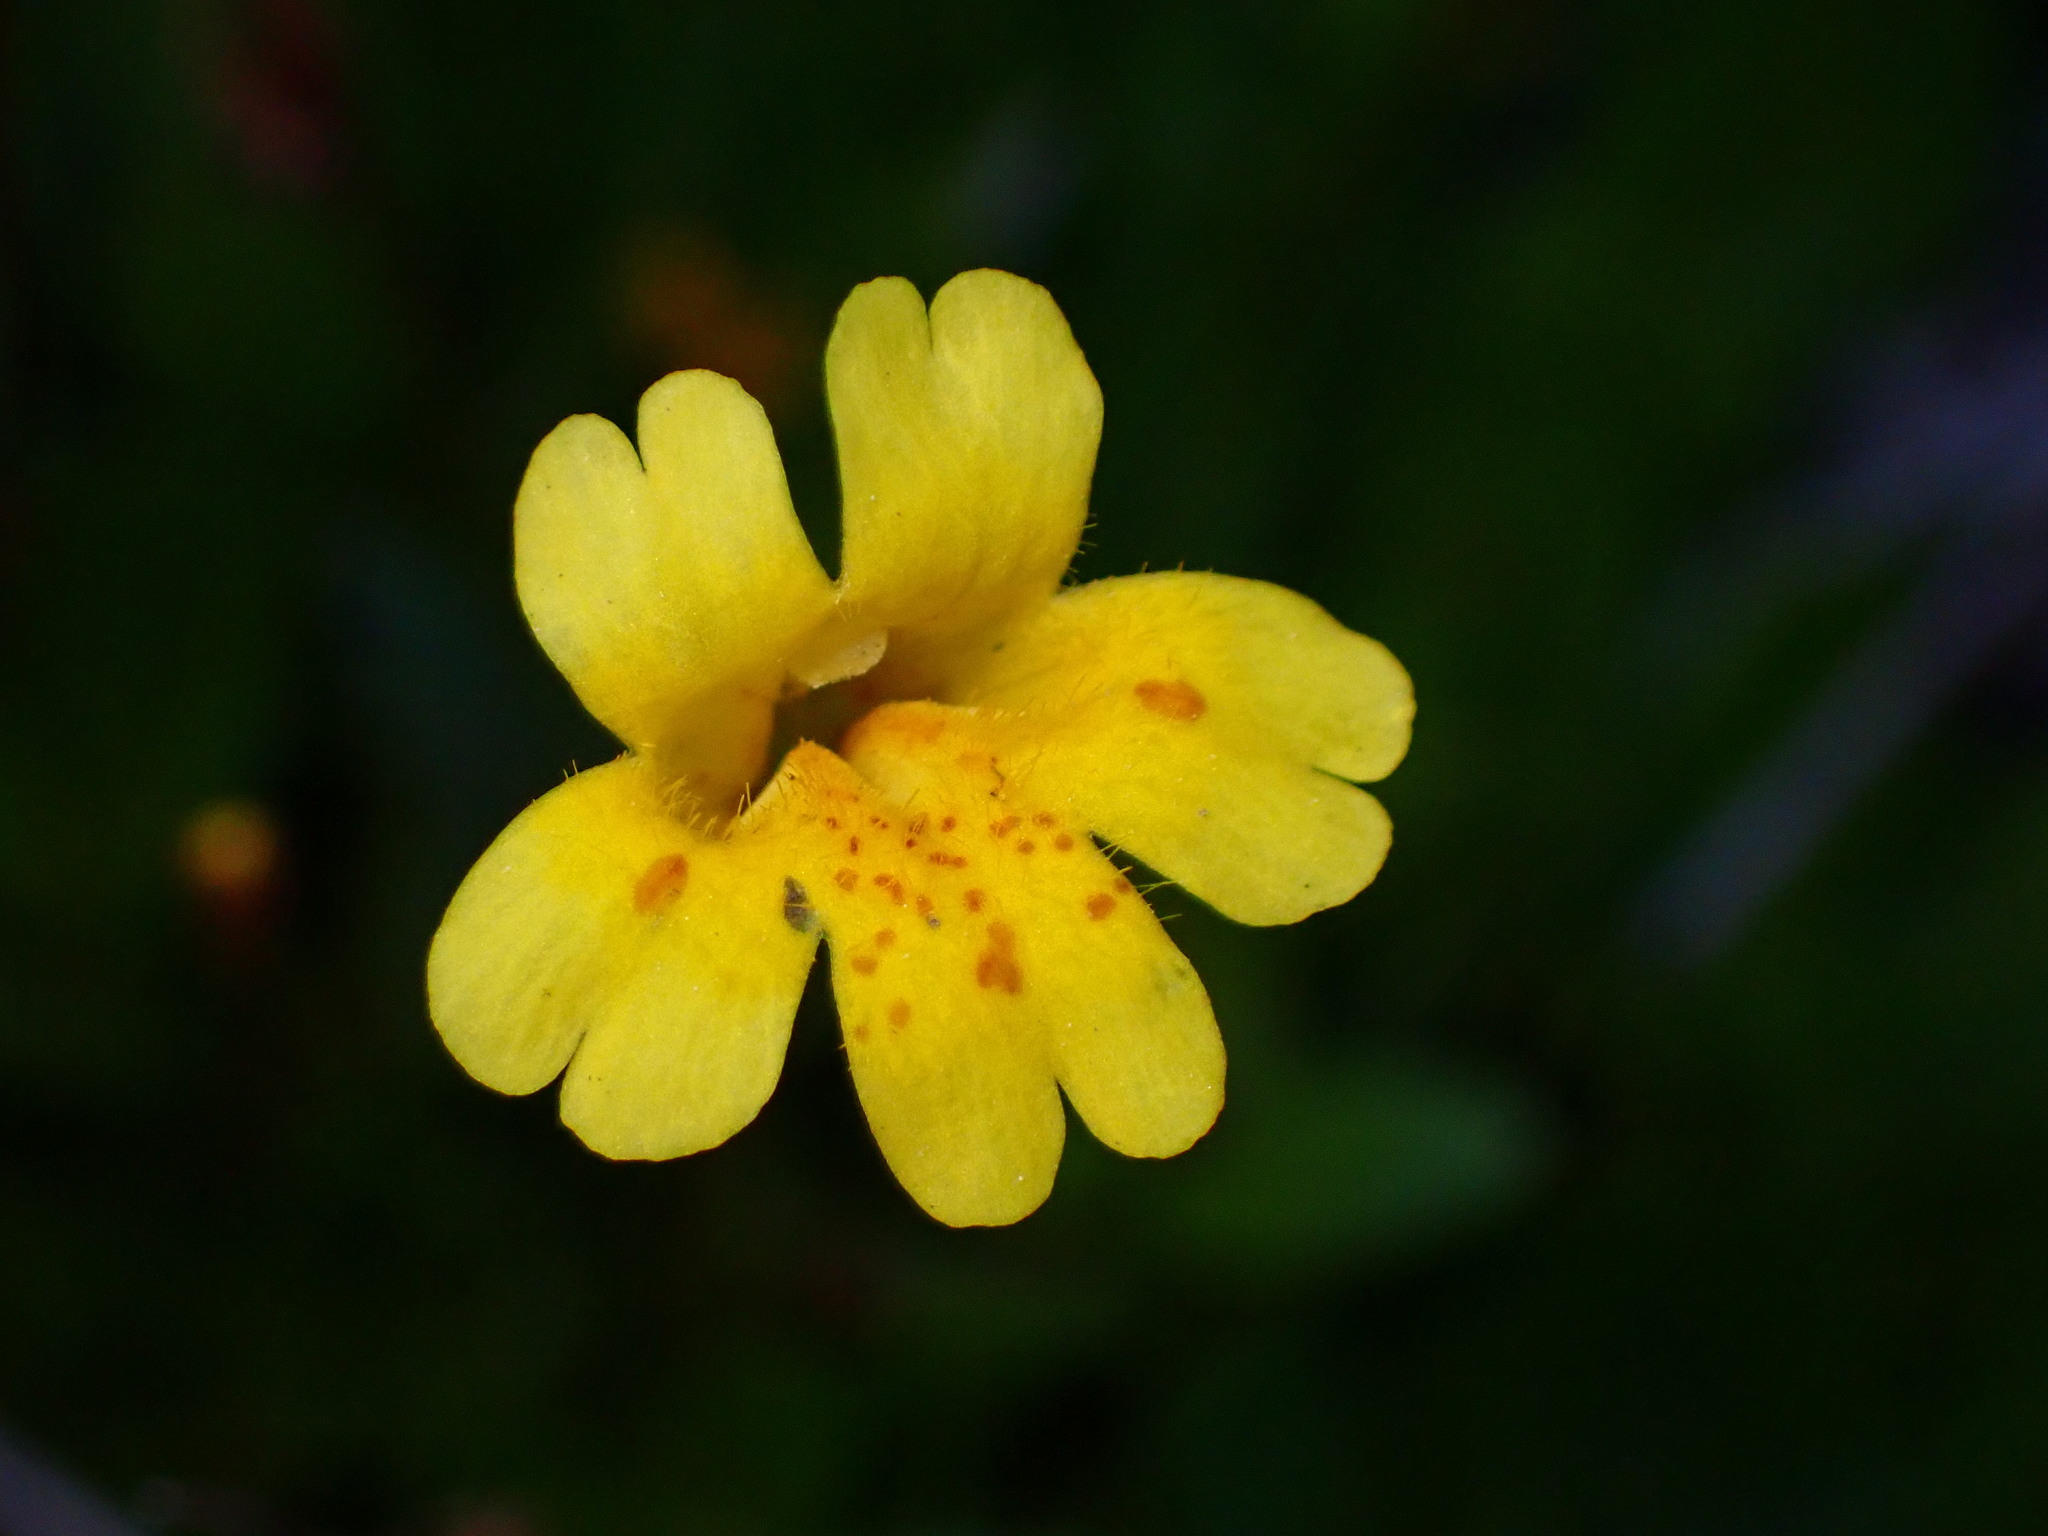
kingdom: Plantae
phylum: Tracheophyta
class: Magnoliopsida
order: Lamiales
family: Phrymaceae
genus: Erythranthe
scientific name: Erythranthe primuloides
